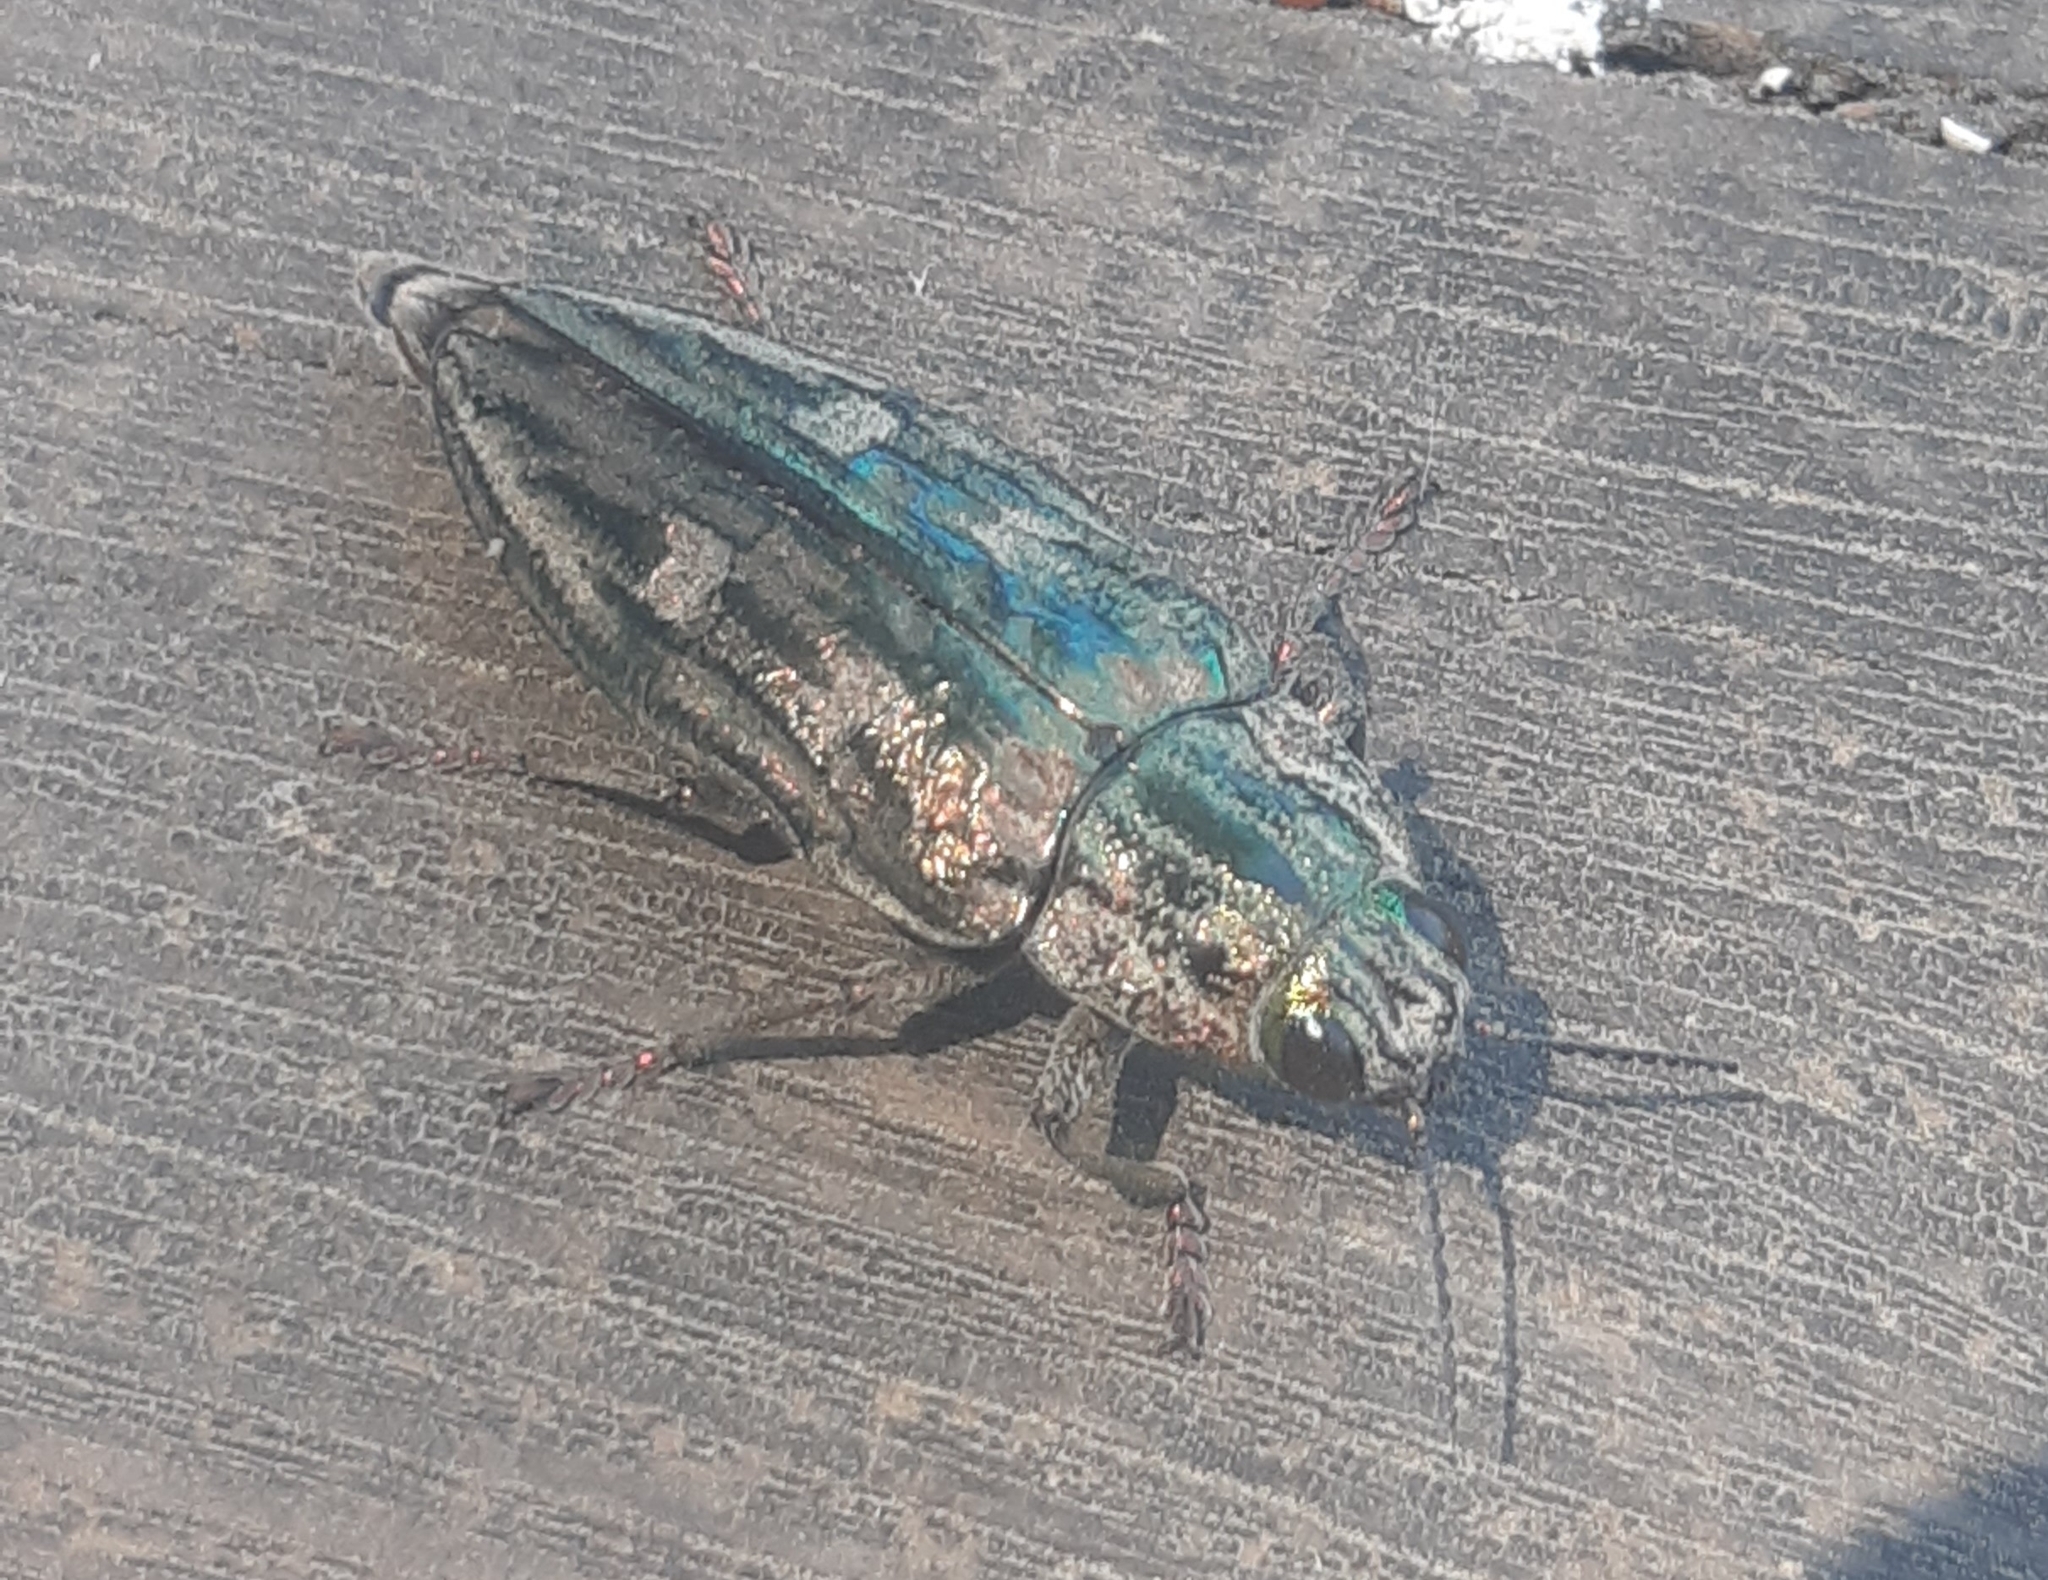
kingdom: Animalia
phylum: Arthropoda
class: Insecta
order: Coleoptera
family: Buprestidae
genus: Chalcophora
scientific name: Chalcophora massiliensis
